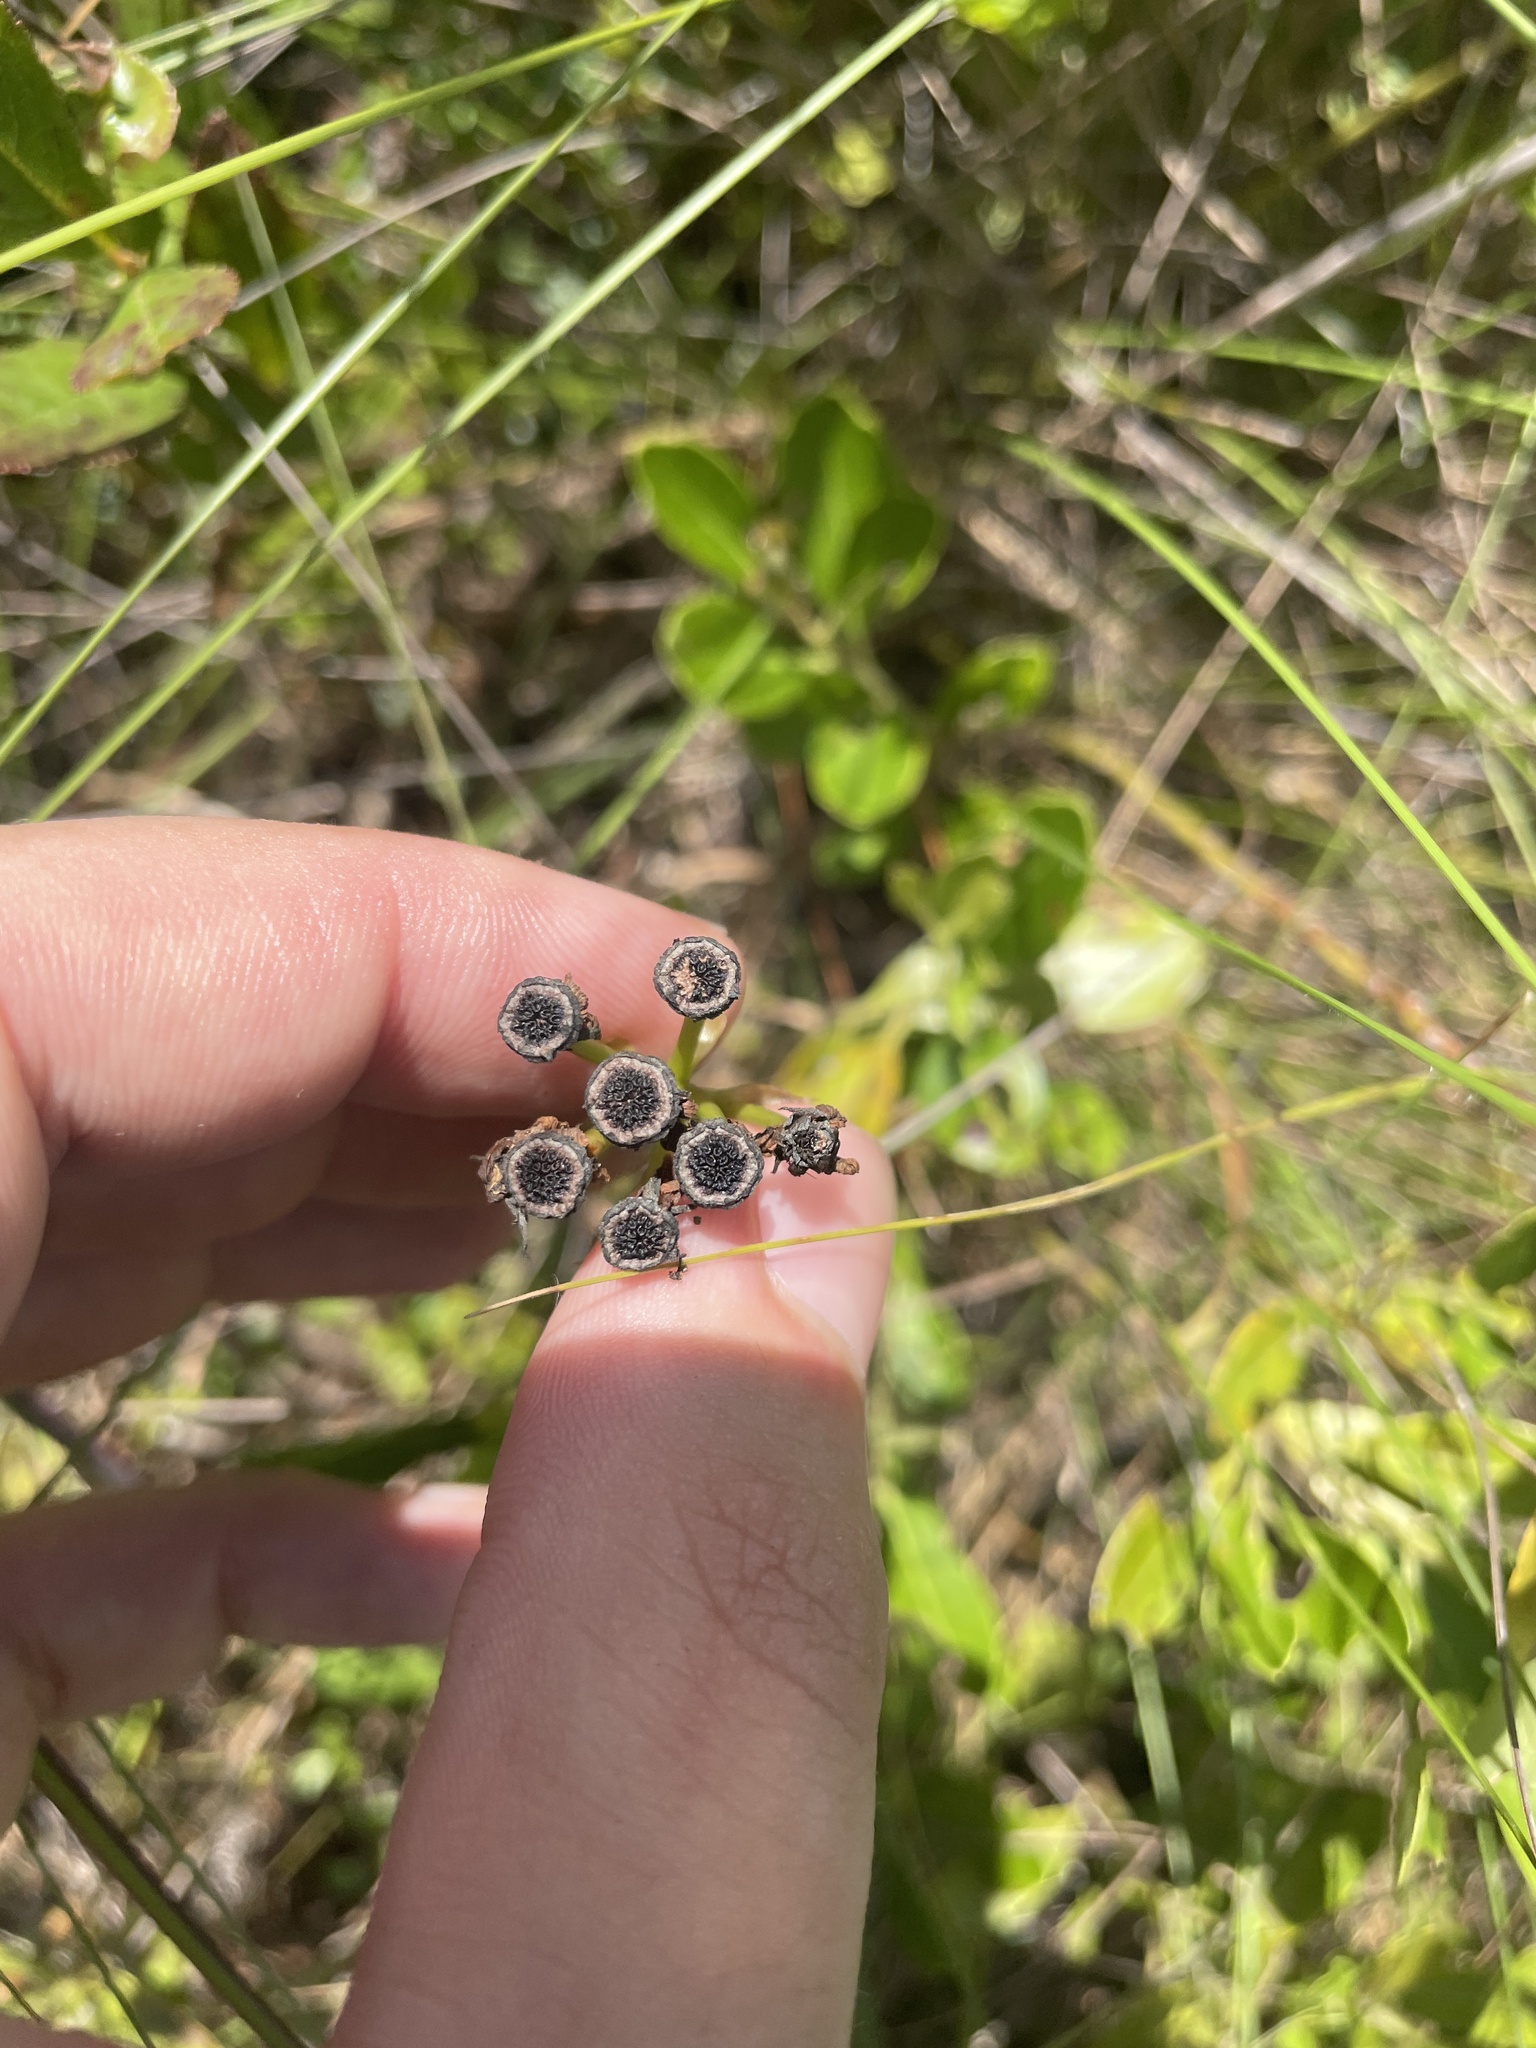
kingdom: Plantae
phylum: Tracheophyta
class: Magnoliopsida
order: Caryophyllales
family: Droseraceae
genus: Dionaea
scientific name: Dionaea muscipula
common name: Venus flytrap
